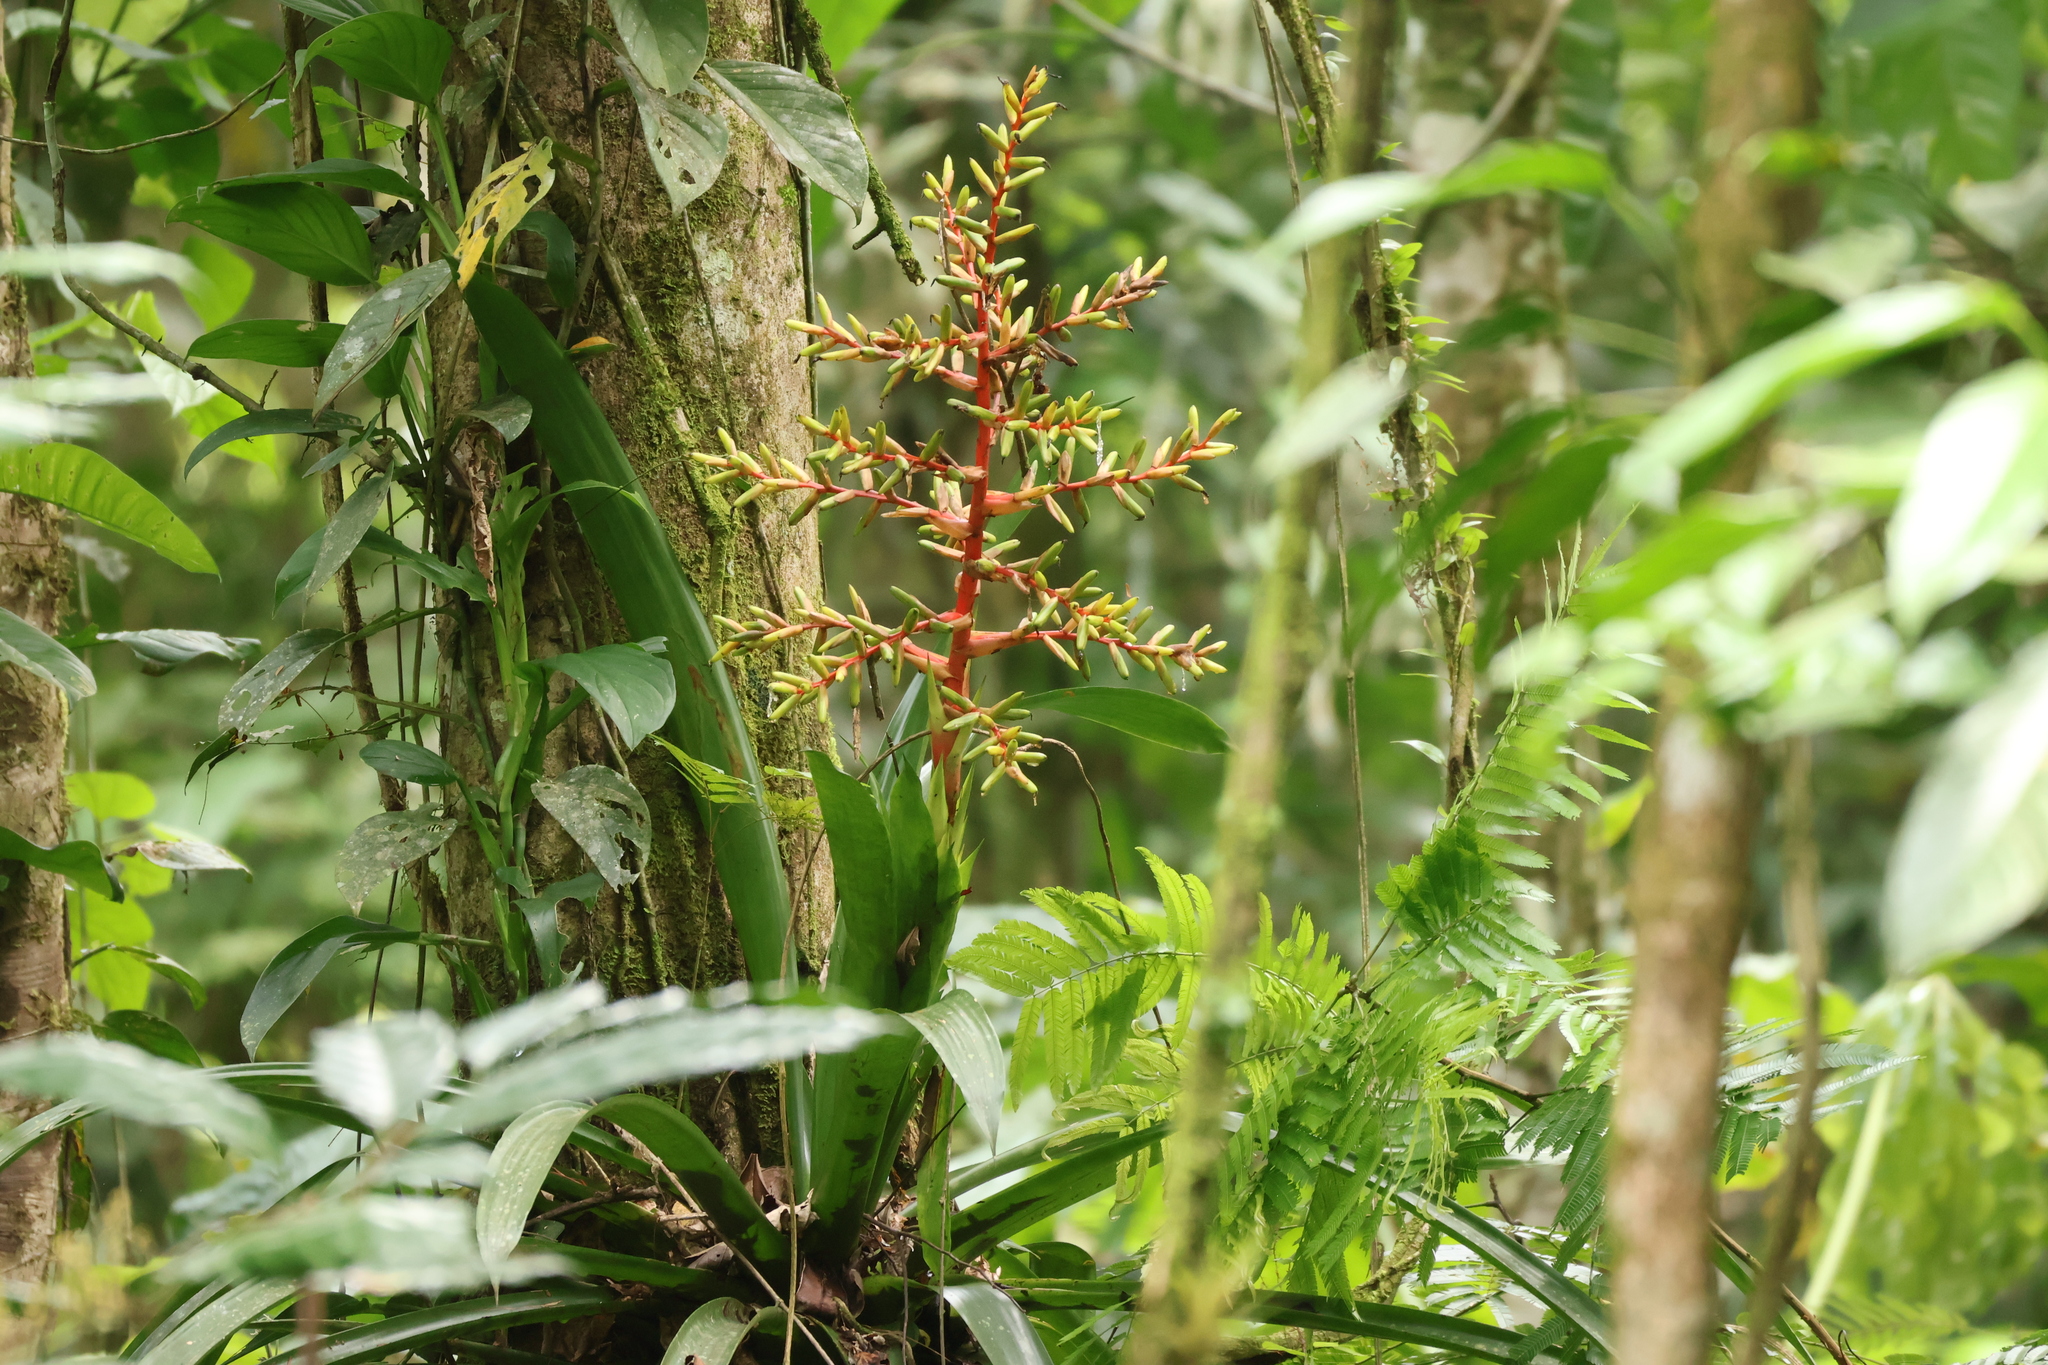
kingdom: Plantae
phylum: Tracheophyta
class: Liliopsida
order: Poales
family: Bromeliaceae
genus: Guzmania
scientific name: Guzmania scherzeriana
